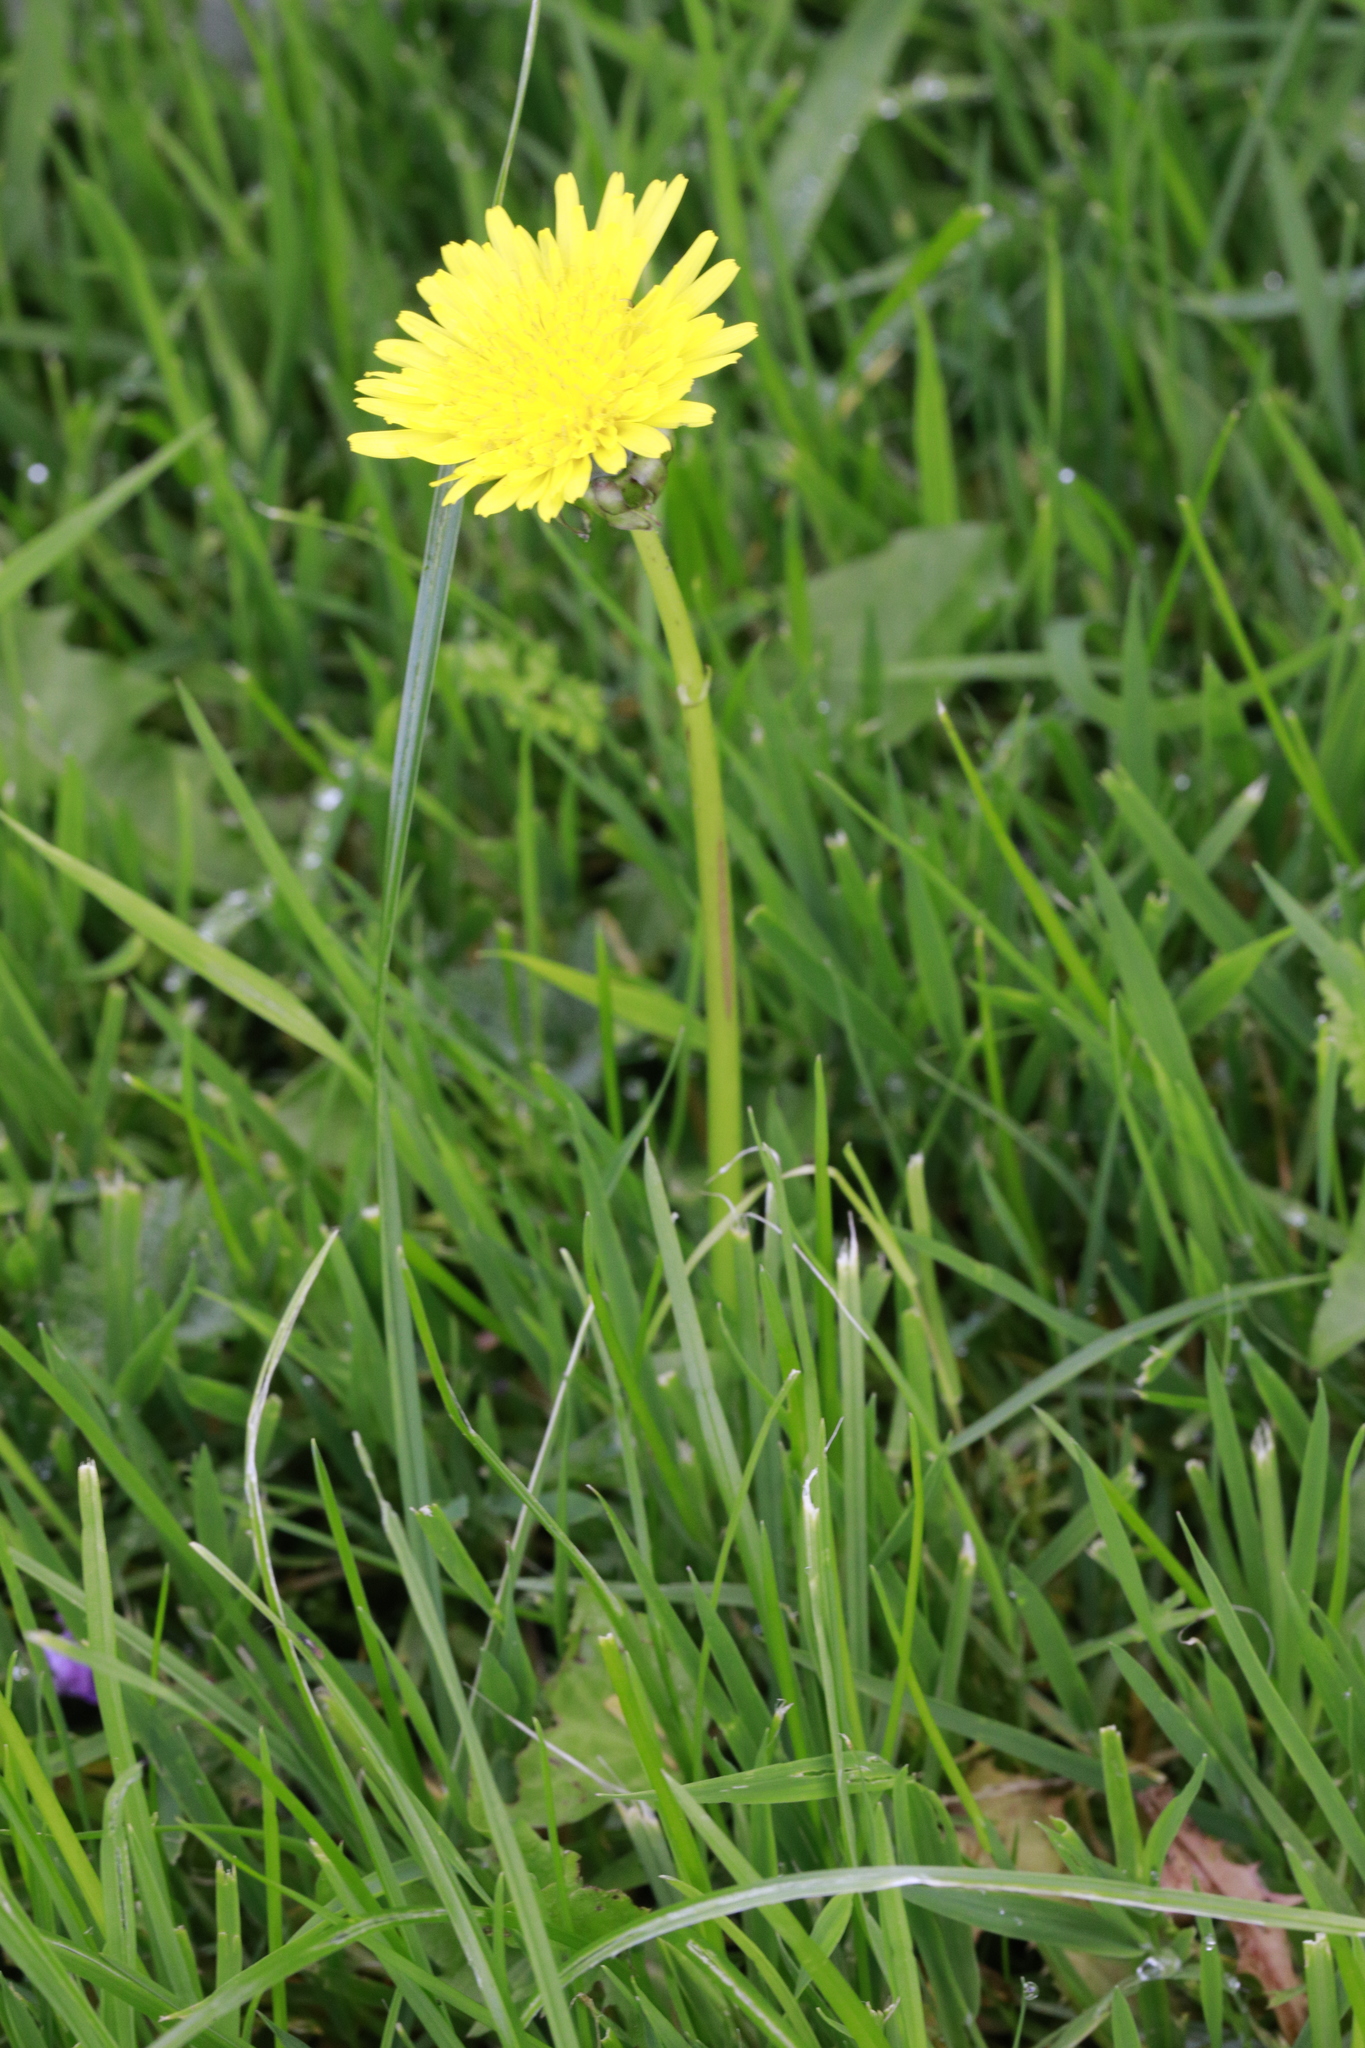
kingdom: Plantae
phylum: Tracheophyta
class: Magnoliopsida
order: Asterales
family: Asteraceae
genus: Taraxacum
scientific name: Taraxacum officinale
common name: Common dandelion
